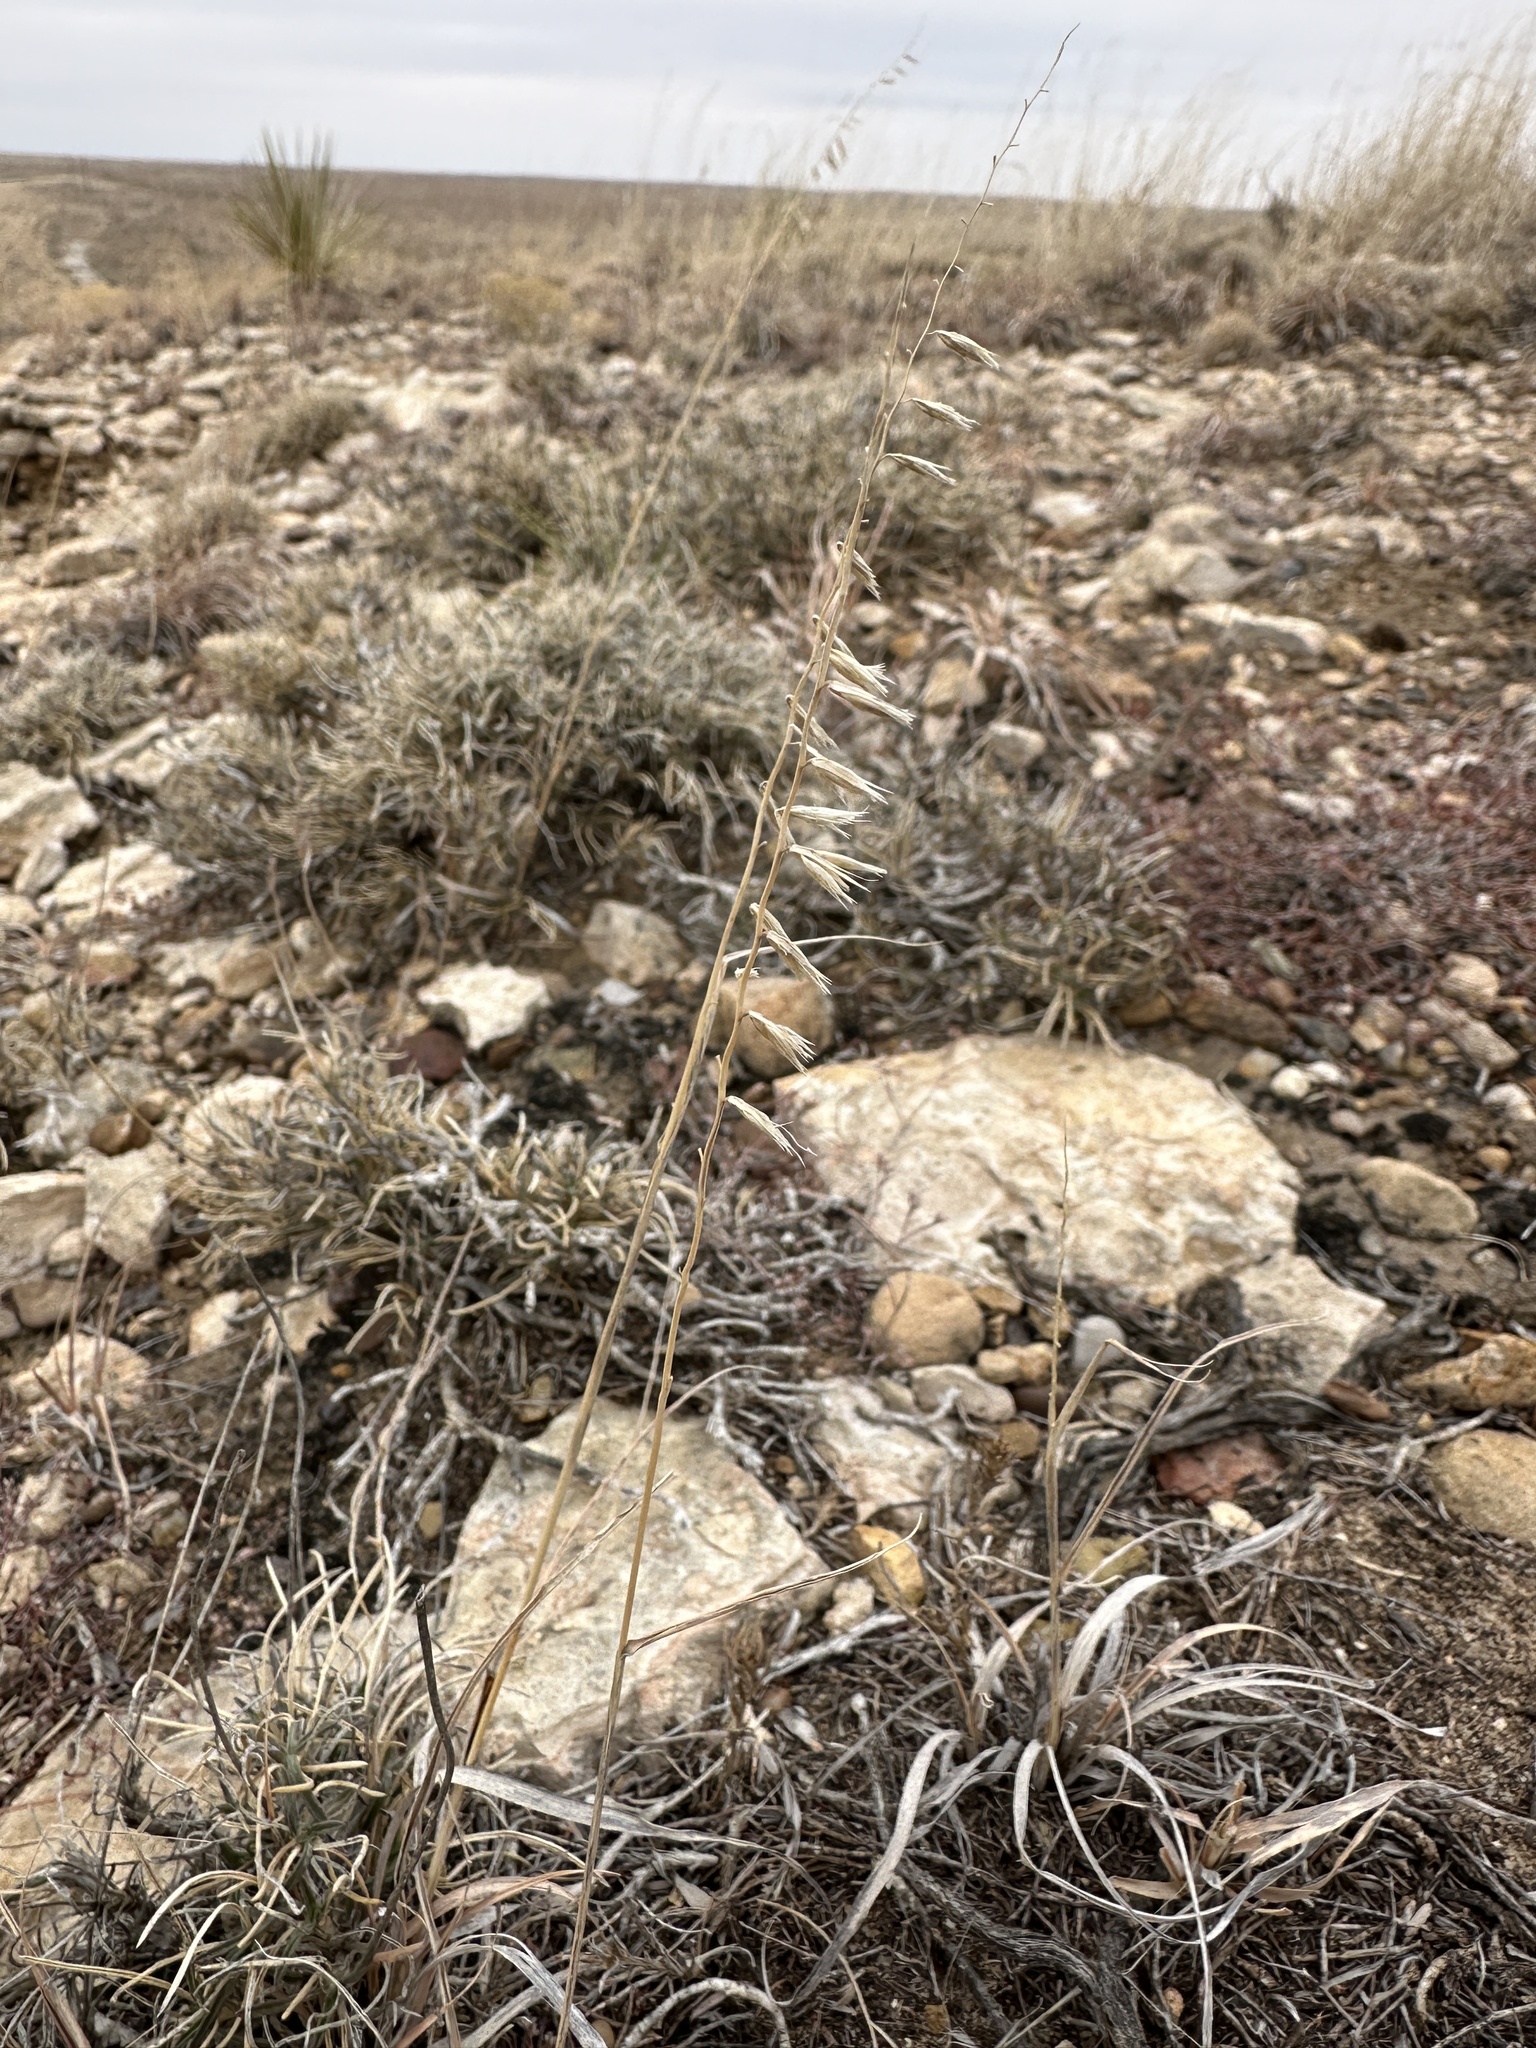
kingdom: Plantae
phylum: Tracheophyta
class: Liliopsida
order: Poales
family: Poaceae
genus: Bouteloua
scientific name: Bouteloua curtipendula
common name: Side-oats grama
